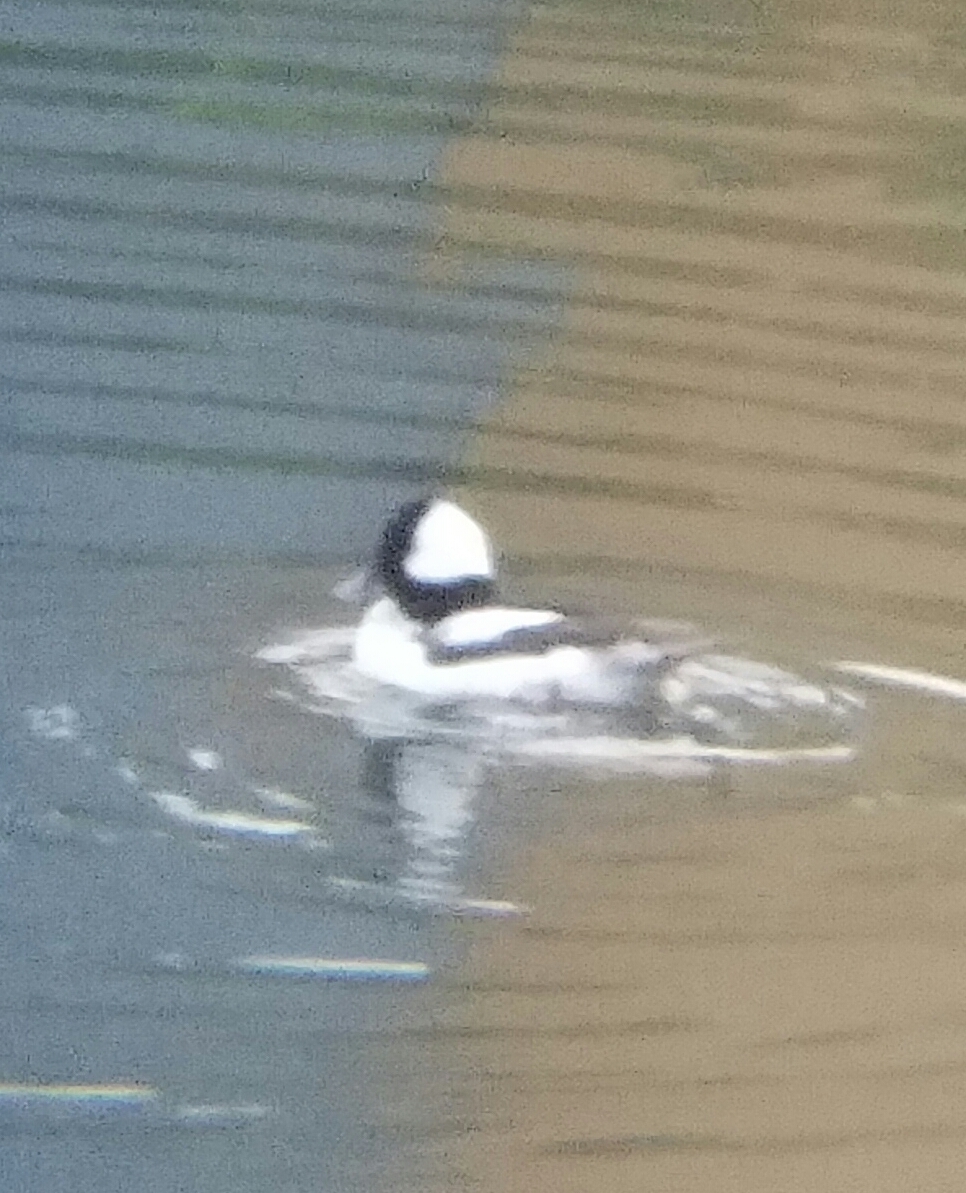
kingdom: Animalia
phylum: Chordata
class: Aves
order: Anseriformes
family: Anatidae
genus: Bucephala
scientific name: Bucephala albeola
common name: Bufflehead
